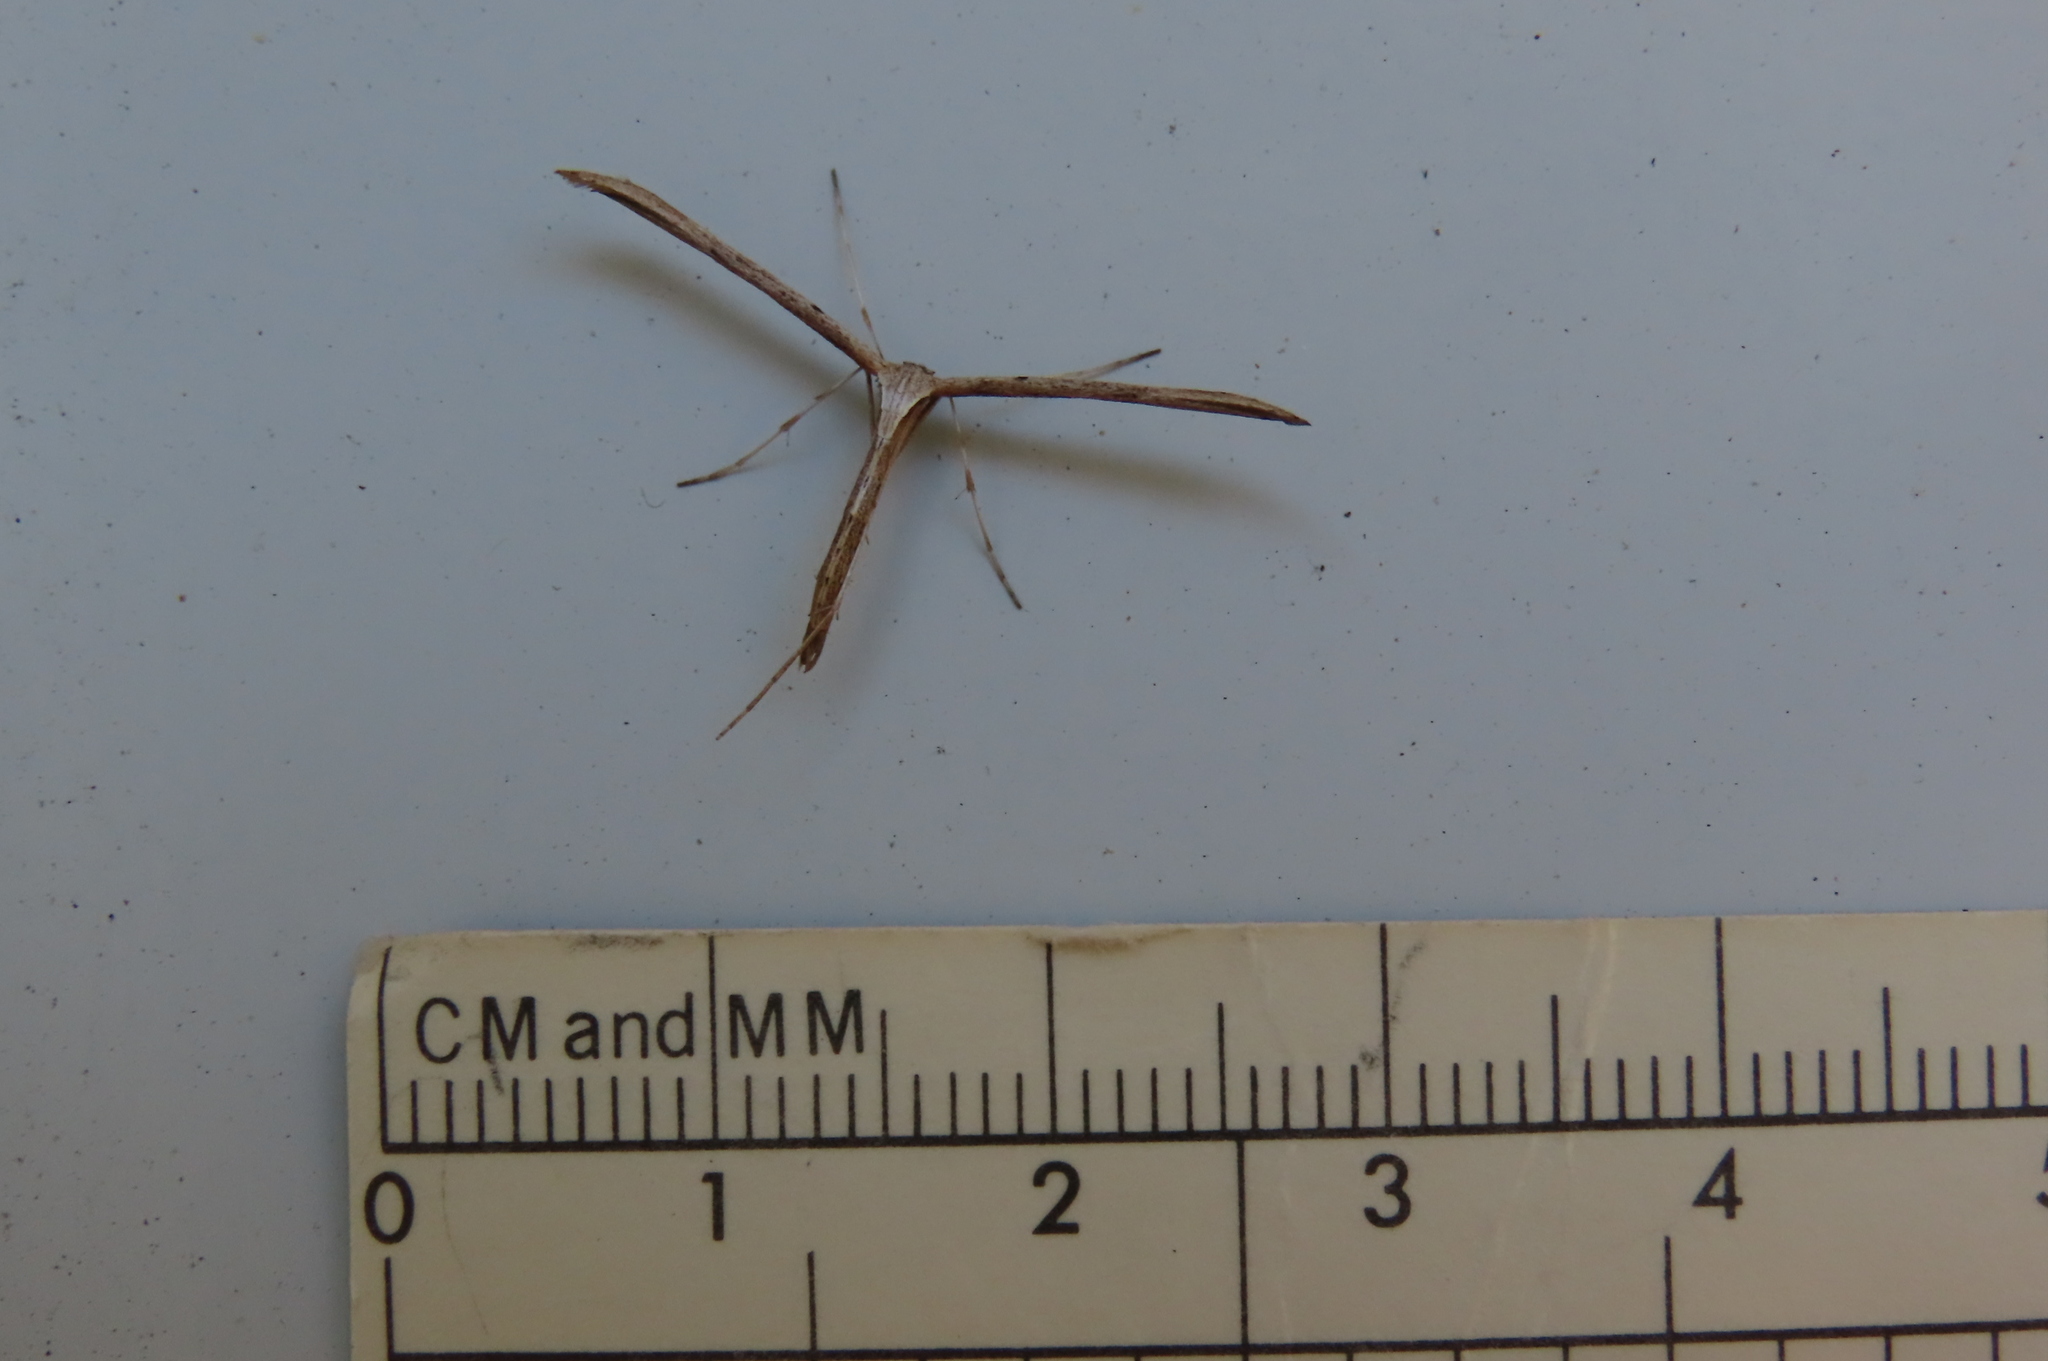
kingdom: Animalia
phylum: Arthropoda
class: Insecta
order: Lepidoptera
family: Pterophoridae
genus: Emmelina
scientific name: Emmelina monodactyla
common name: Common plume
